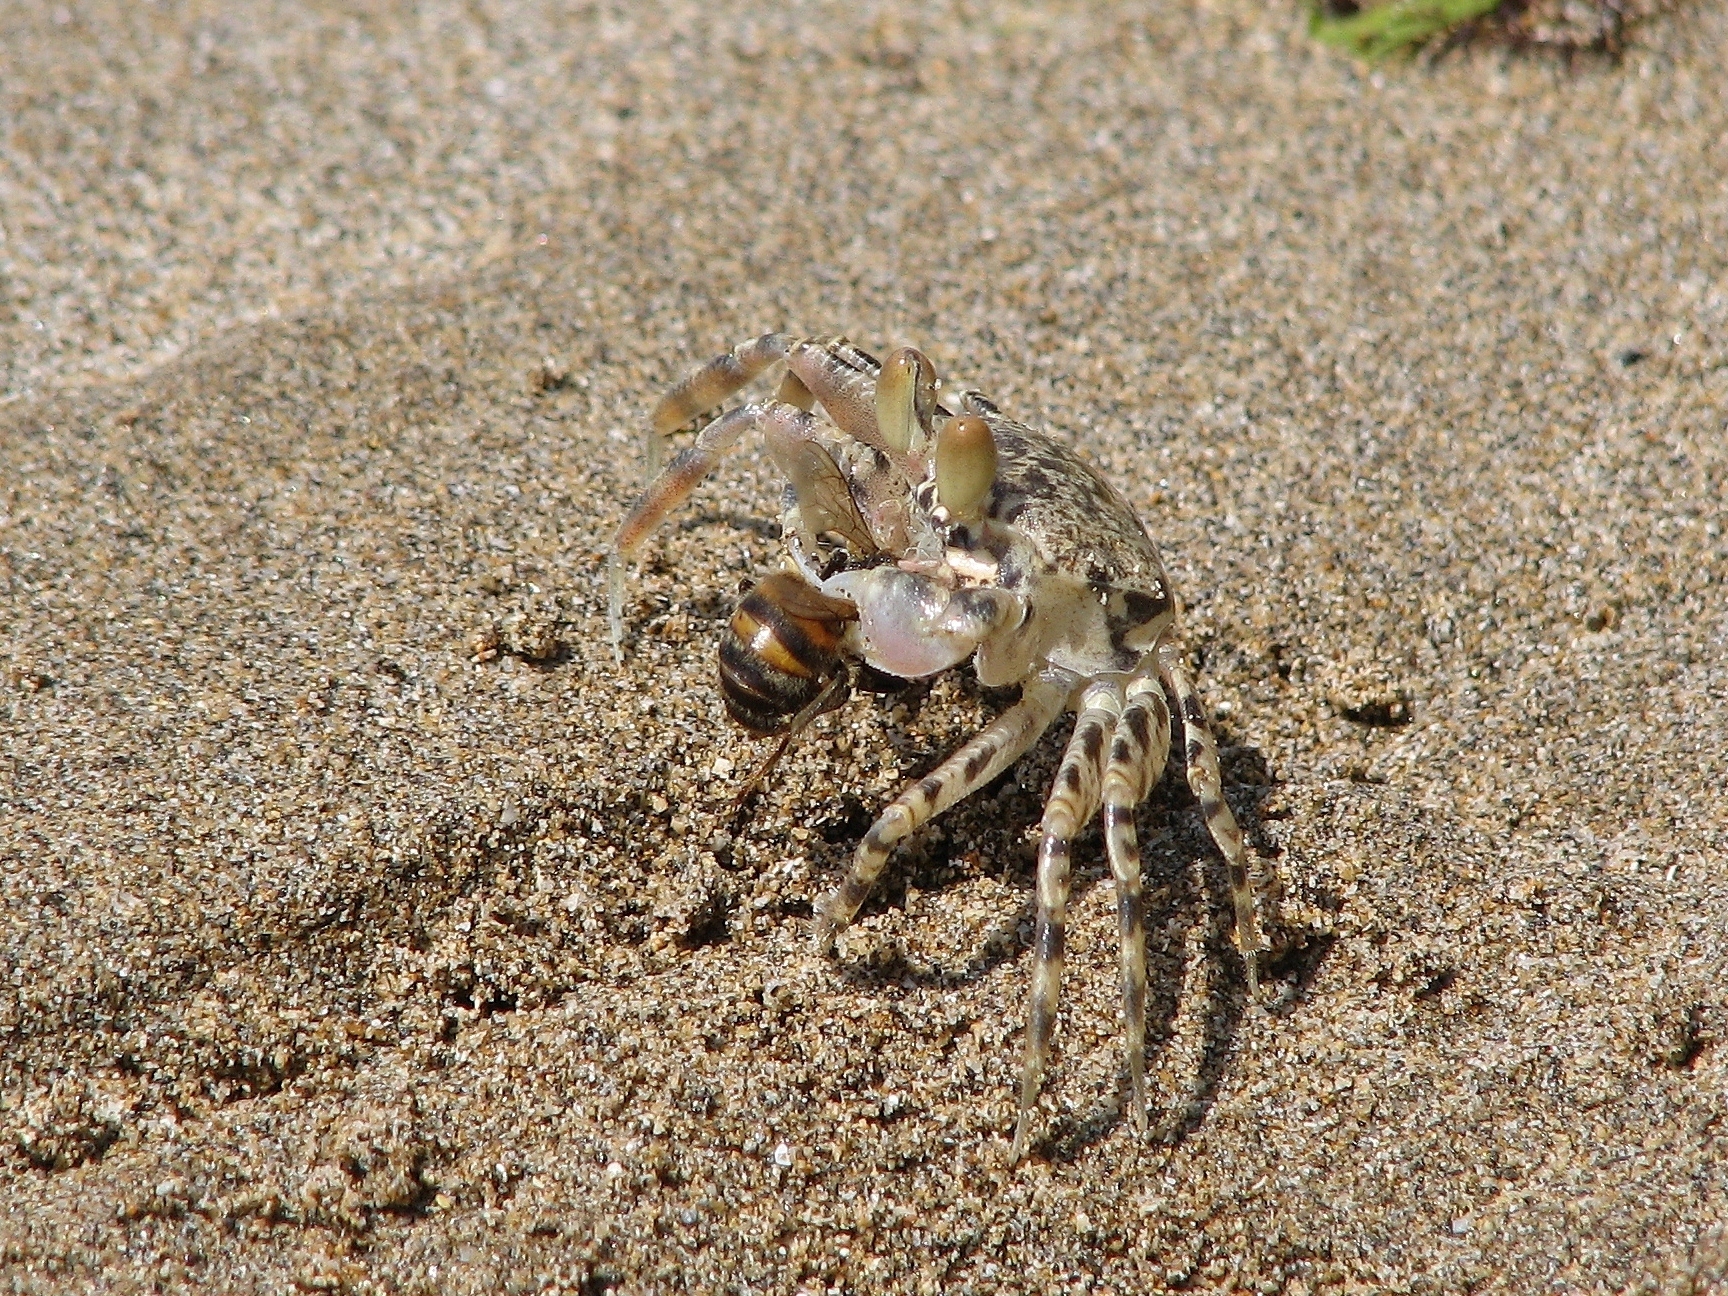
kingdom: Animalia
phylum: Arthropoda
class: Malacostraca
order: Decapoda
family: Ocypodidae
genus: Ocypode
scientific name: Ocypode pallidula
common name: Pallid ghost crab
